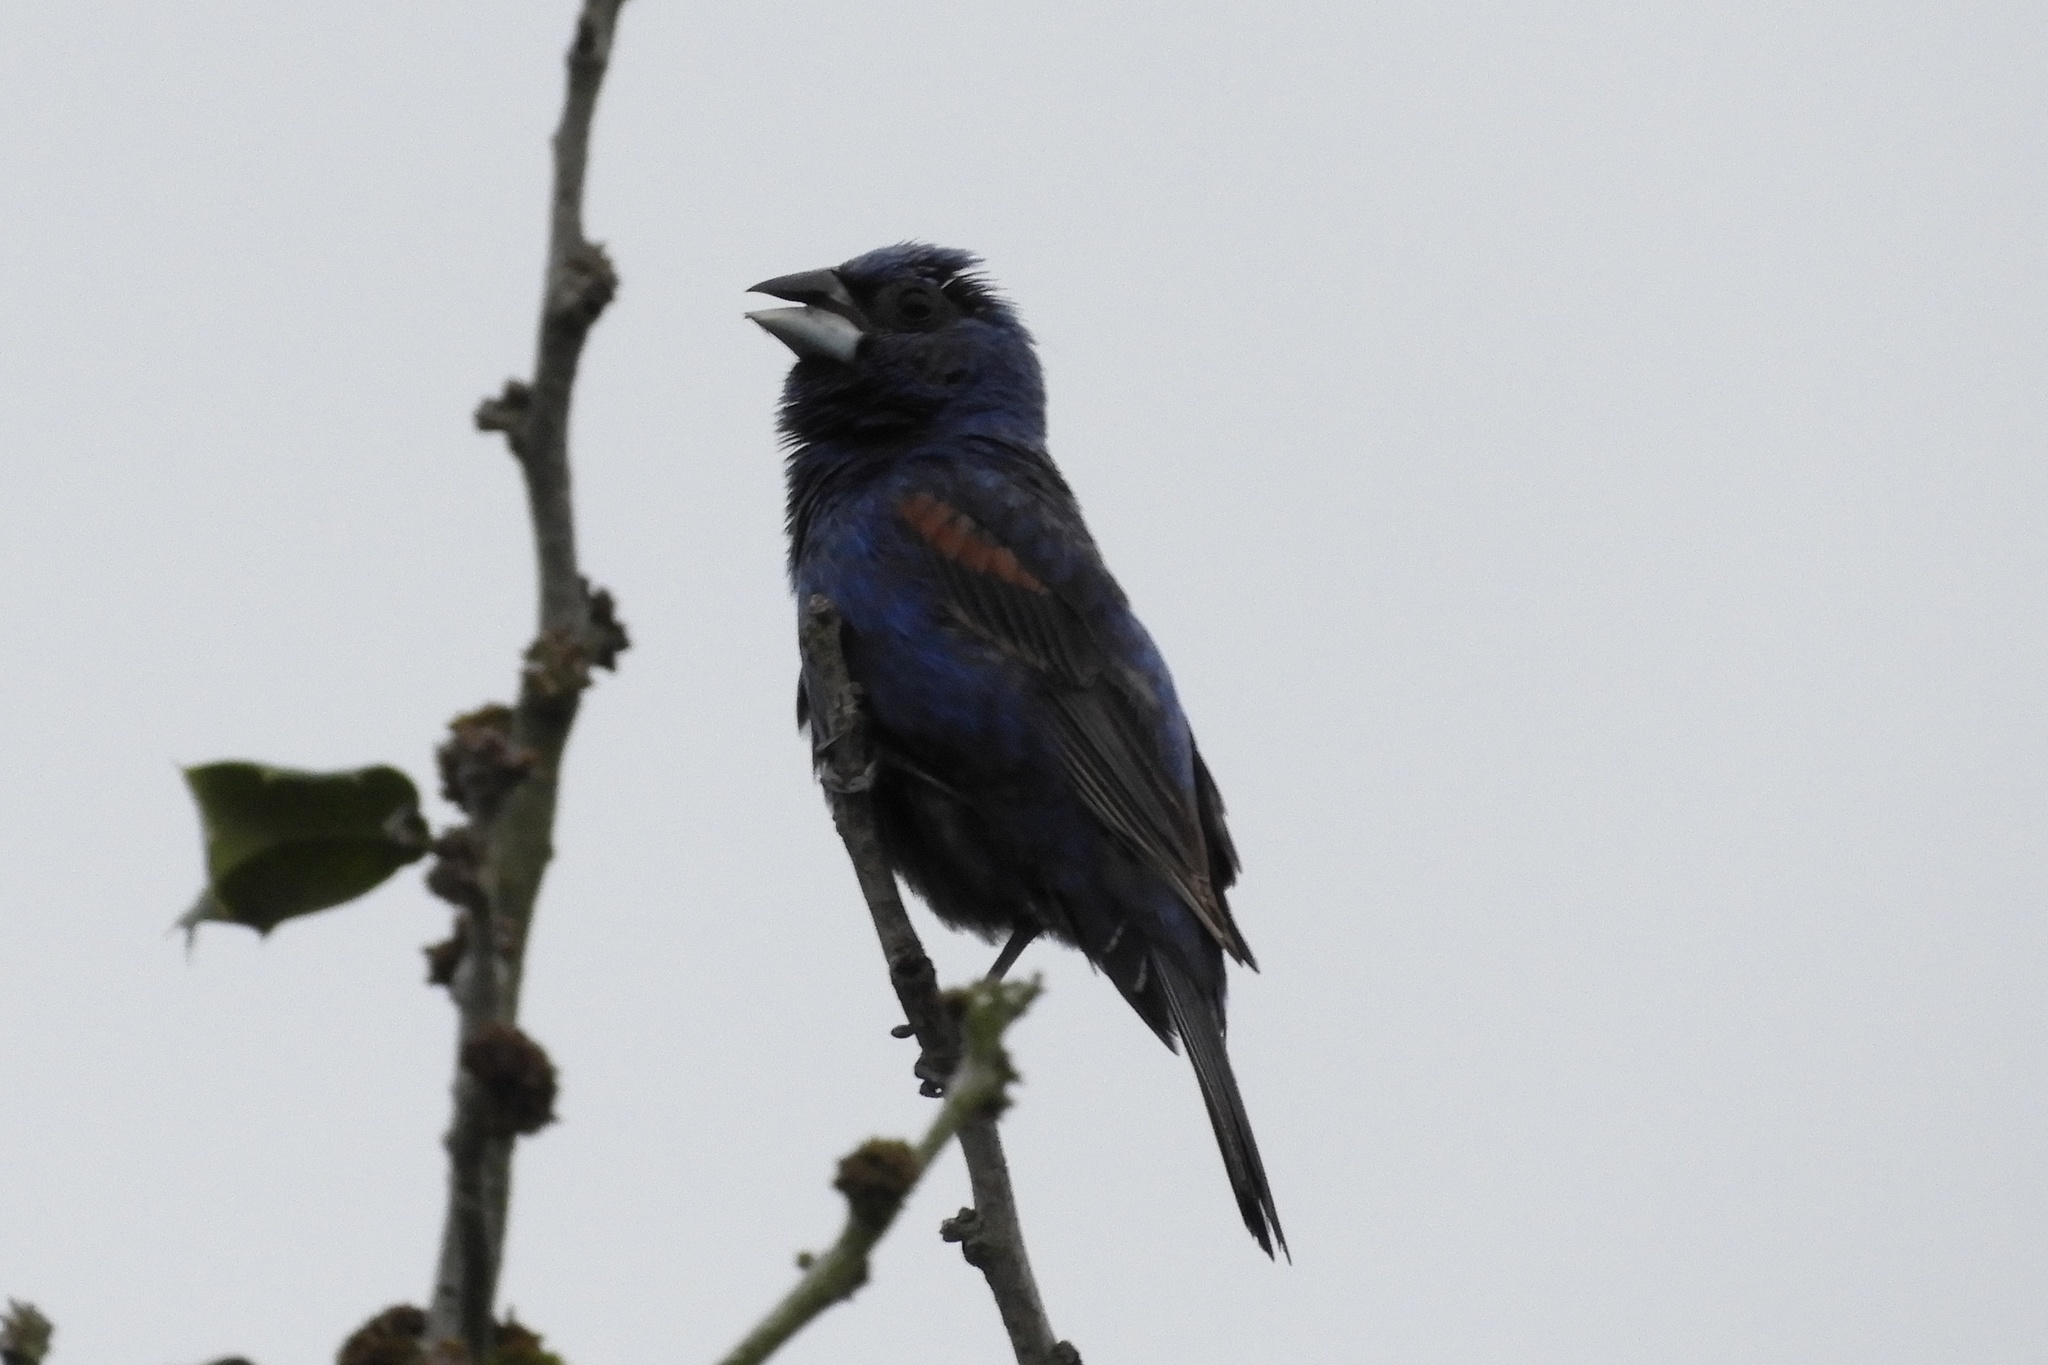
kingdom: Animalia
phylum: Chordata
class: Aves
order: Passeriformes
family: Cardinalidae
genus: Passerina
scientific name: Passerina caerulea
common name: Blue grosbeak
